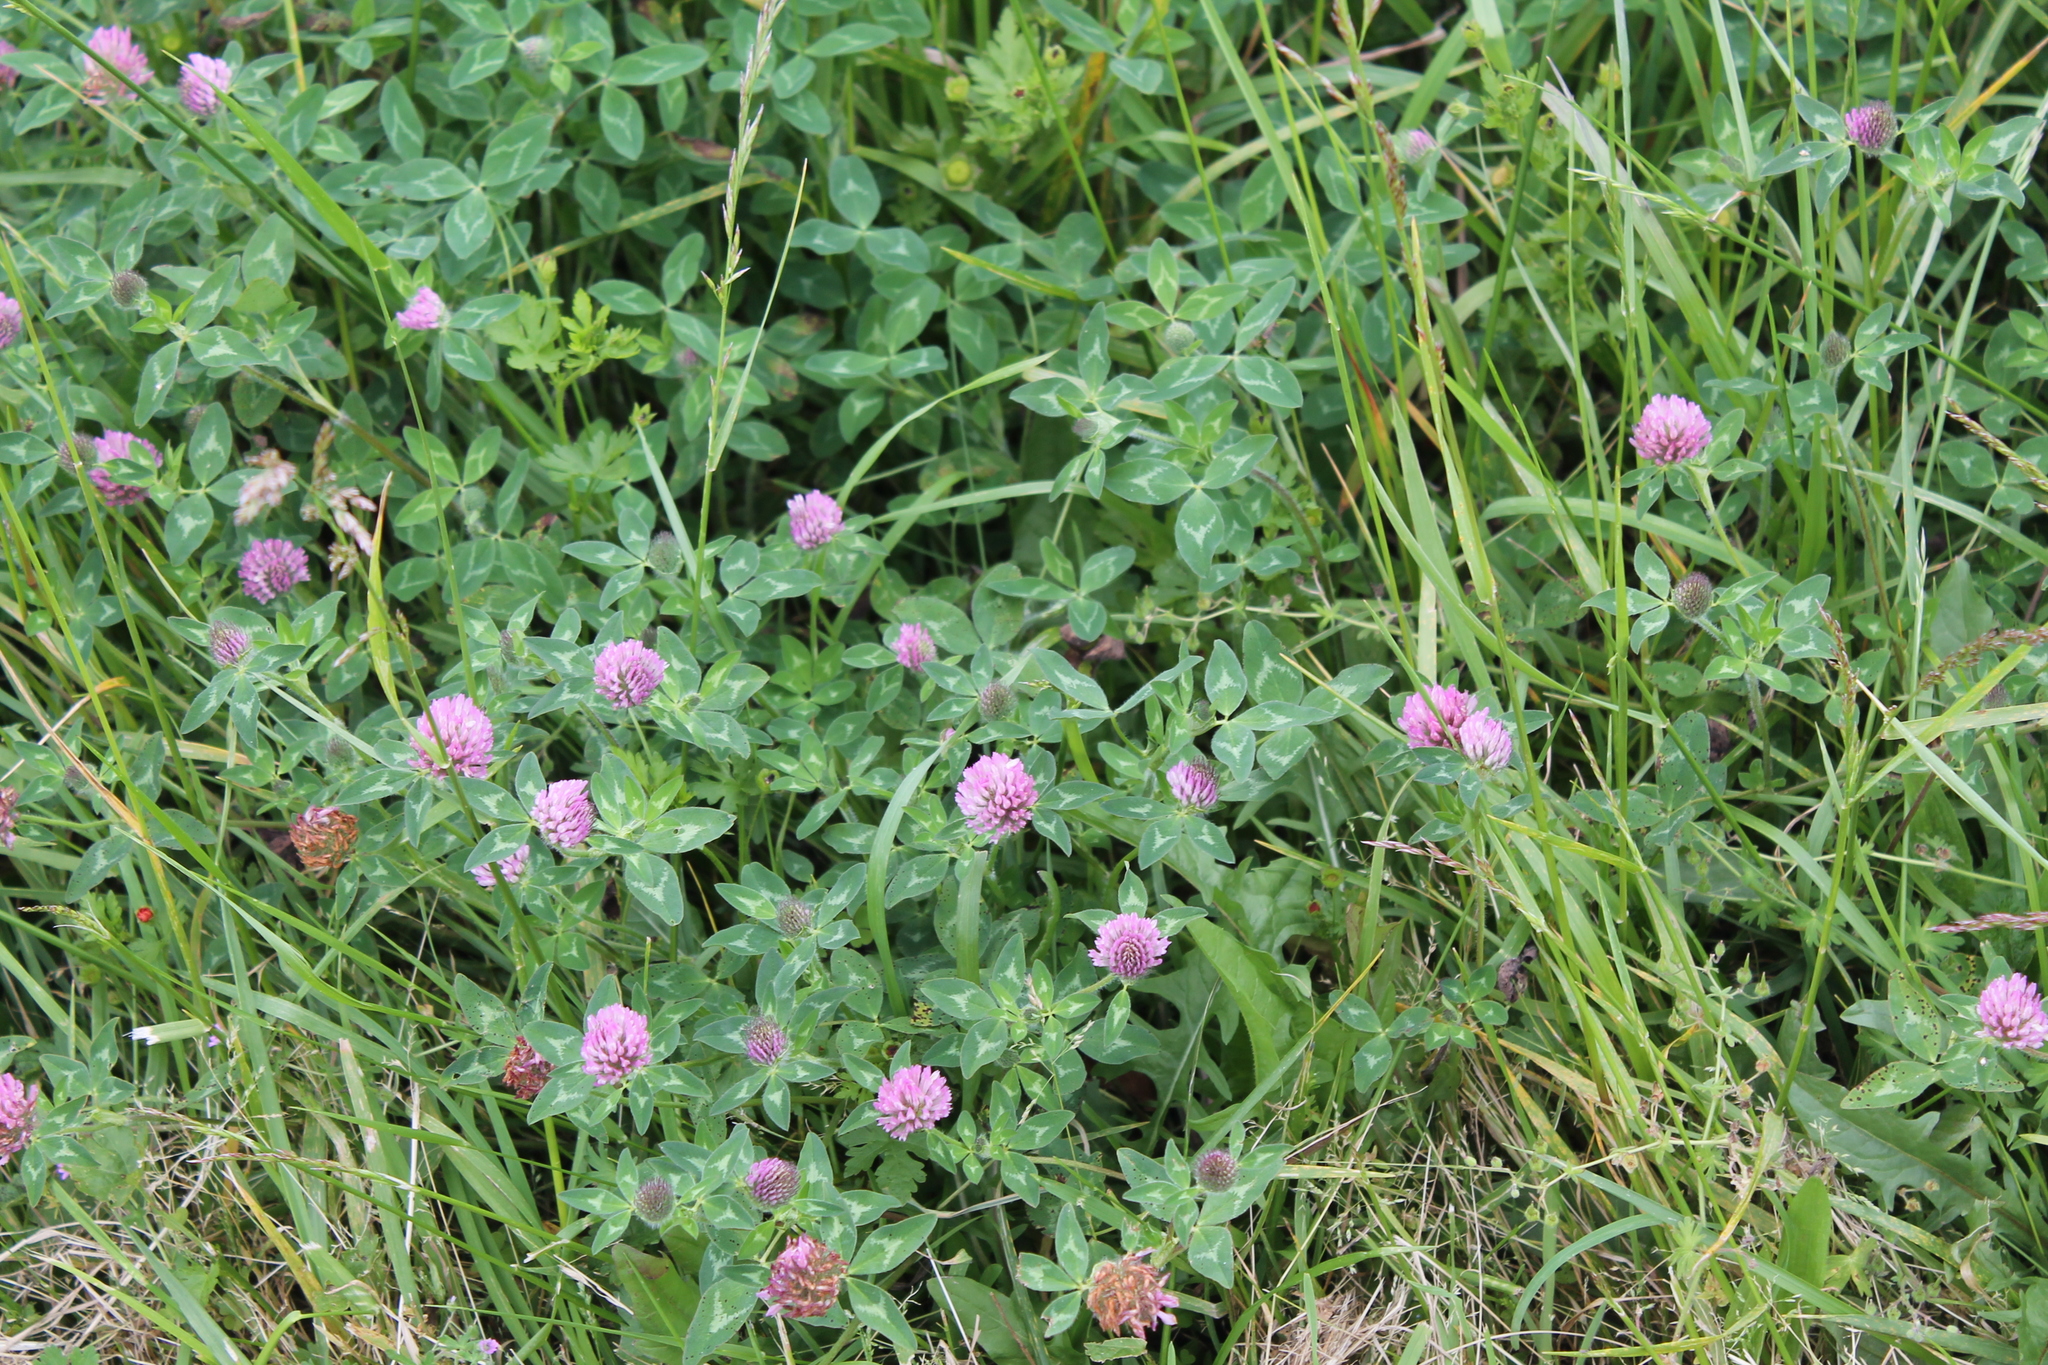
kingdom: Plantae
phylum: Tracheophyta
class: Magnoliopsida
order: Fabales
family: Fabaceae
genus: Trifolium
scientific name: Trifolium pratense
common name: Red clover
